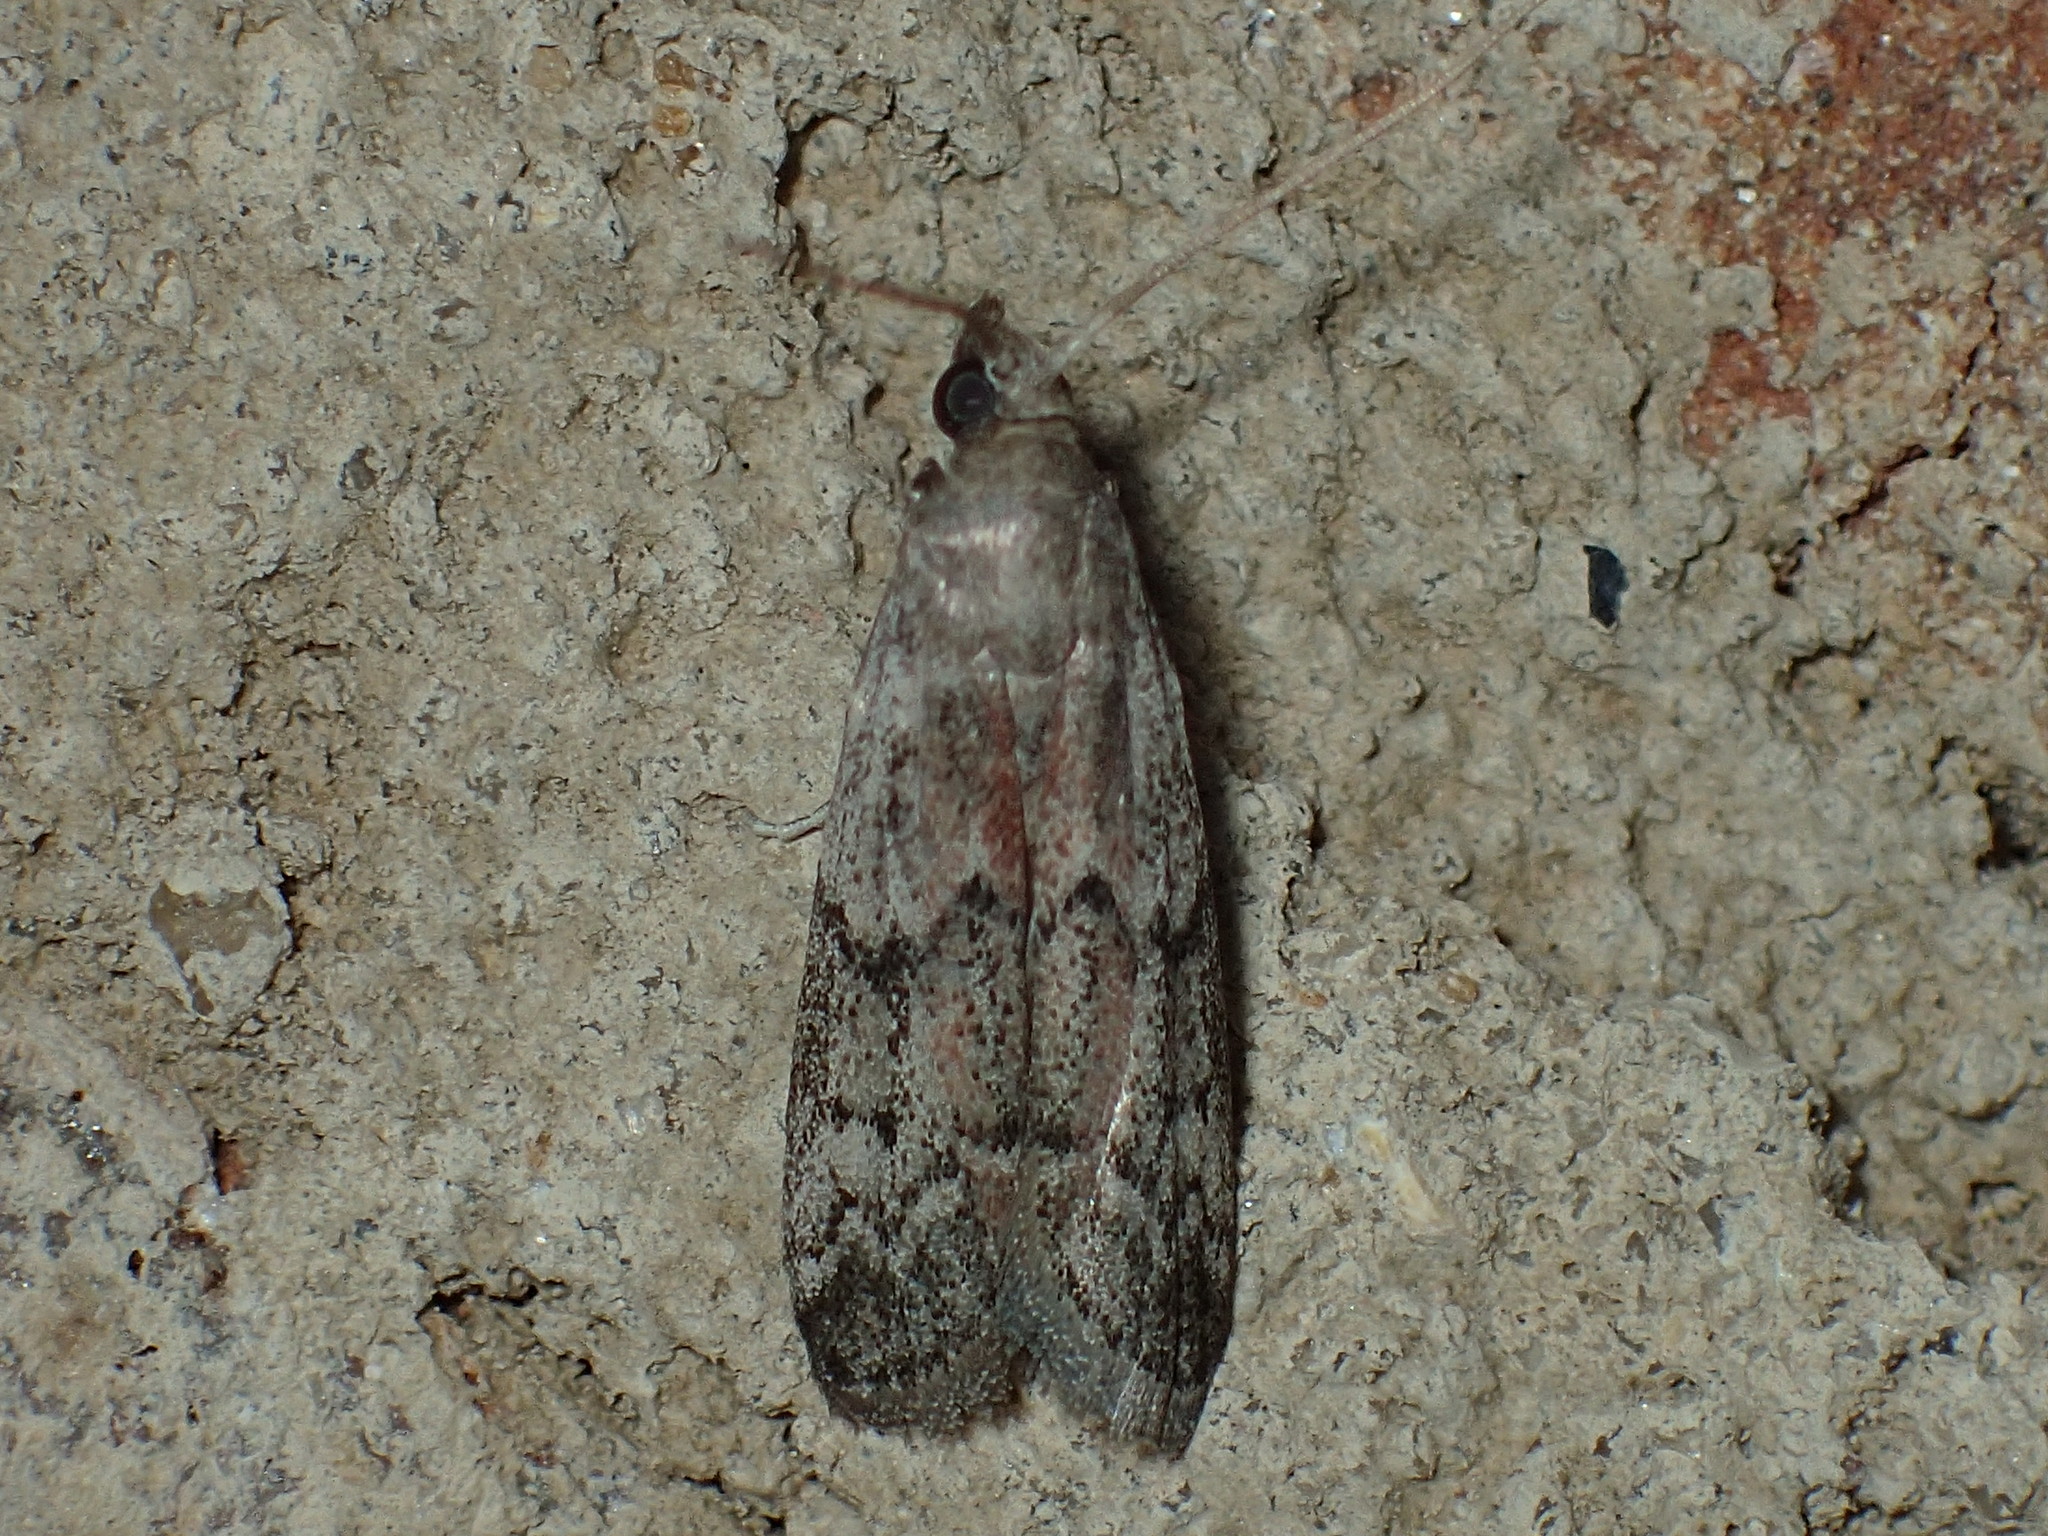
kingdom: Animalia
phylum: Arthropoda
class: Insecta
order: Lepidoptera
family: Pyralidae
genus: Vitula
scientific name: Vitula edmandsii
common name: Dried fruit moth
